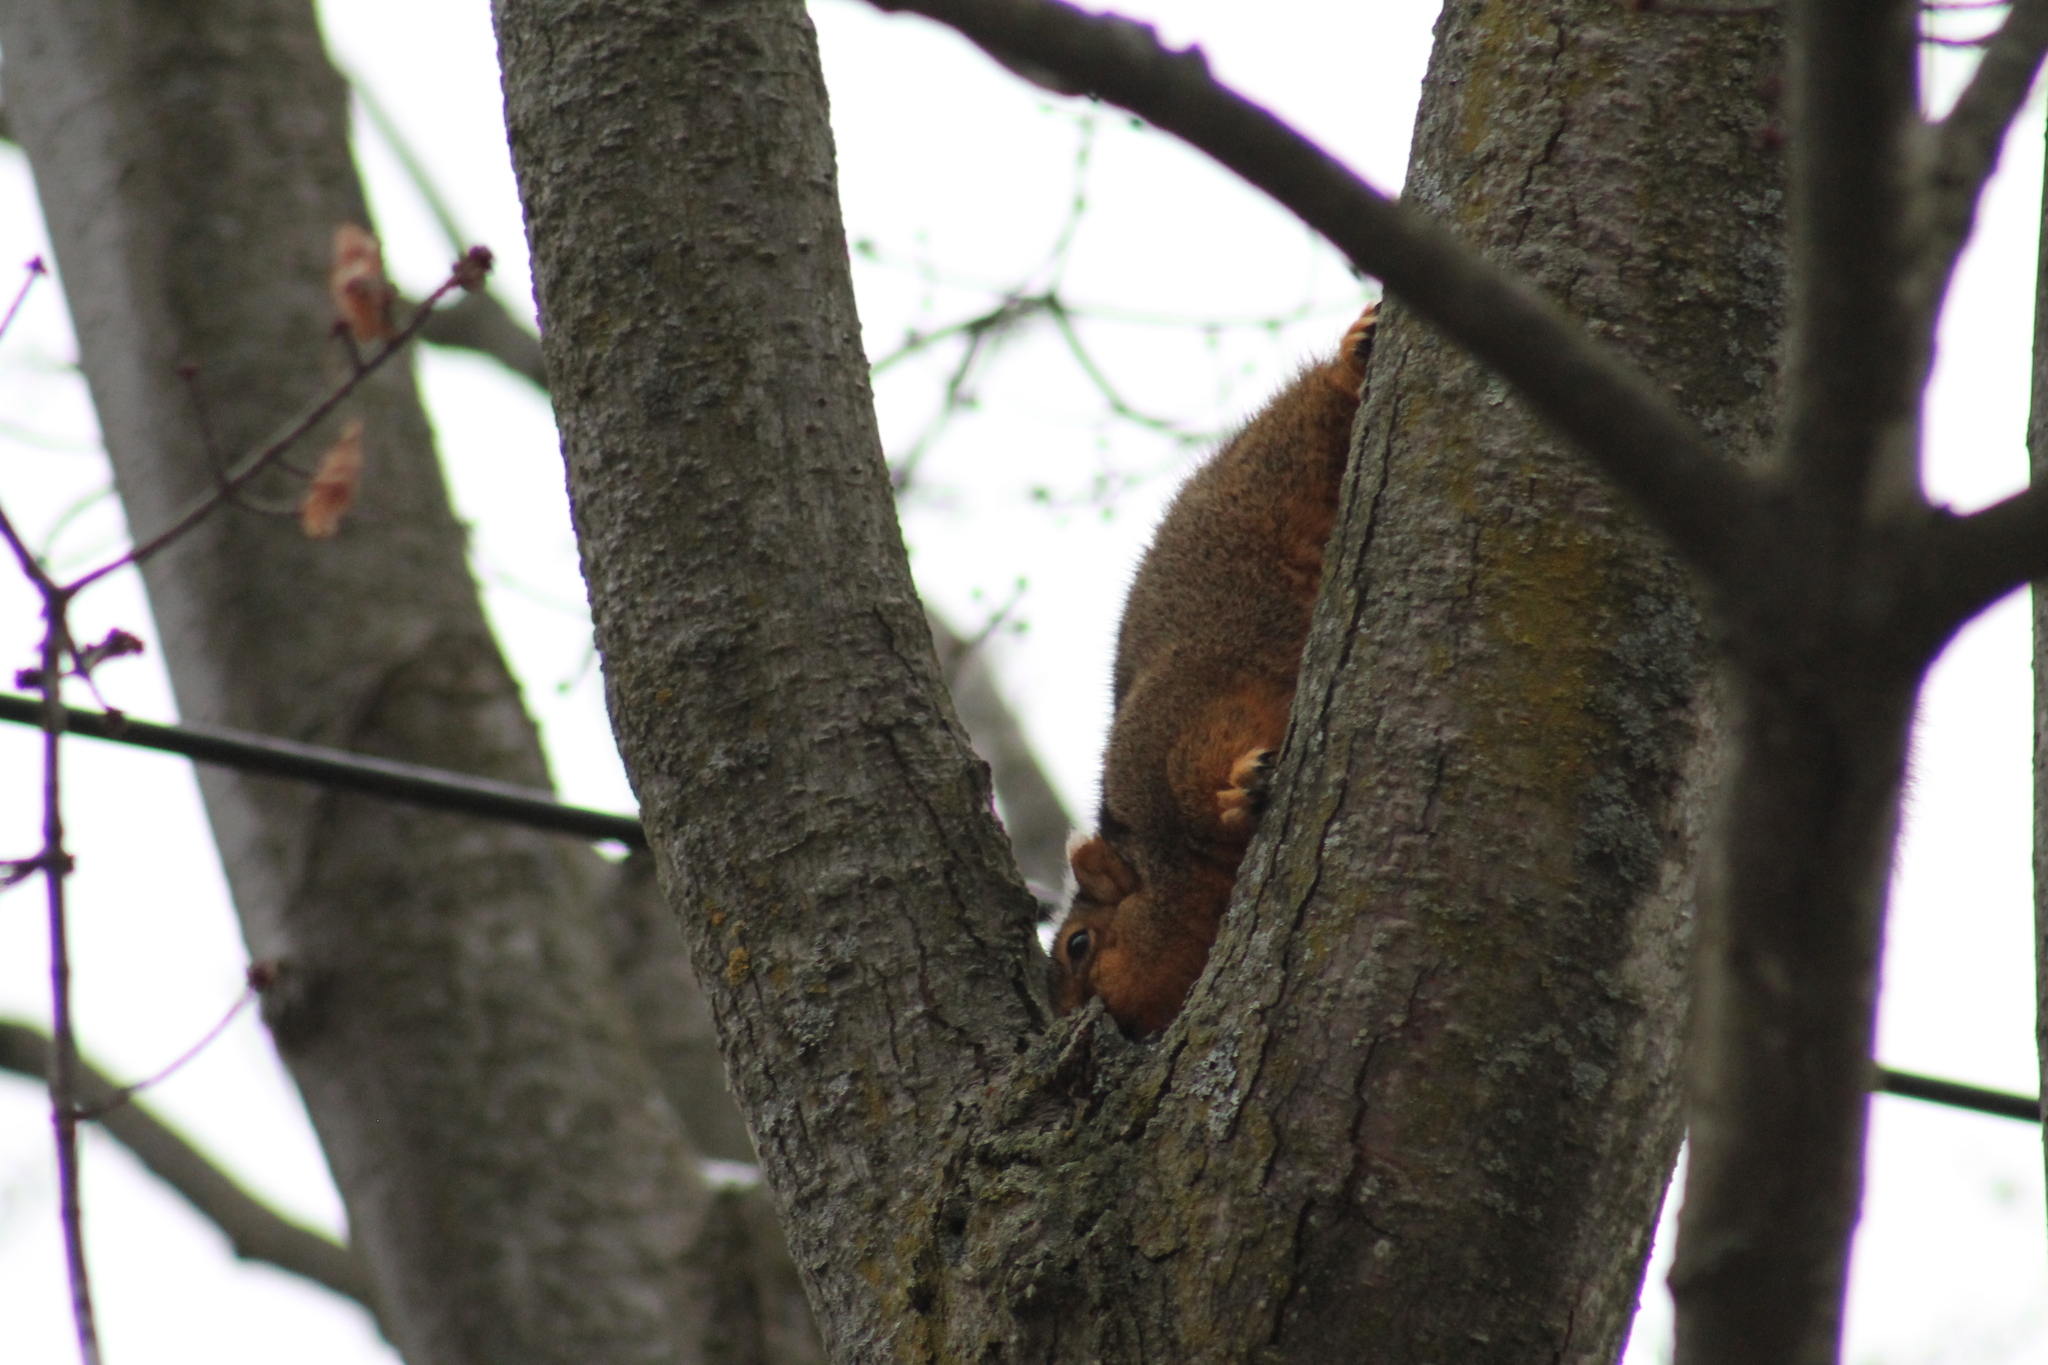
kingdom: Animalia
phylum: Chordata
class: Mammalia
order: Rodentia
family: Sciuridae
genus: Sciurus
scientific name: Sciurus niger
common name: Fox squirrel
